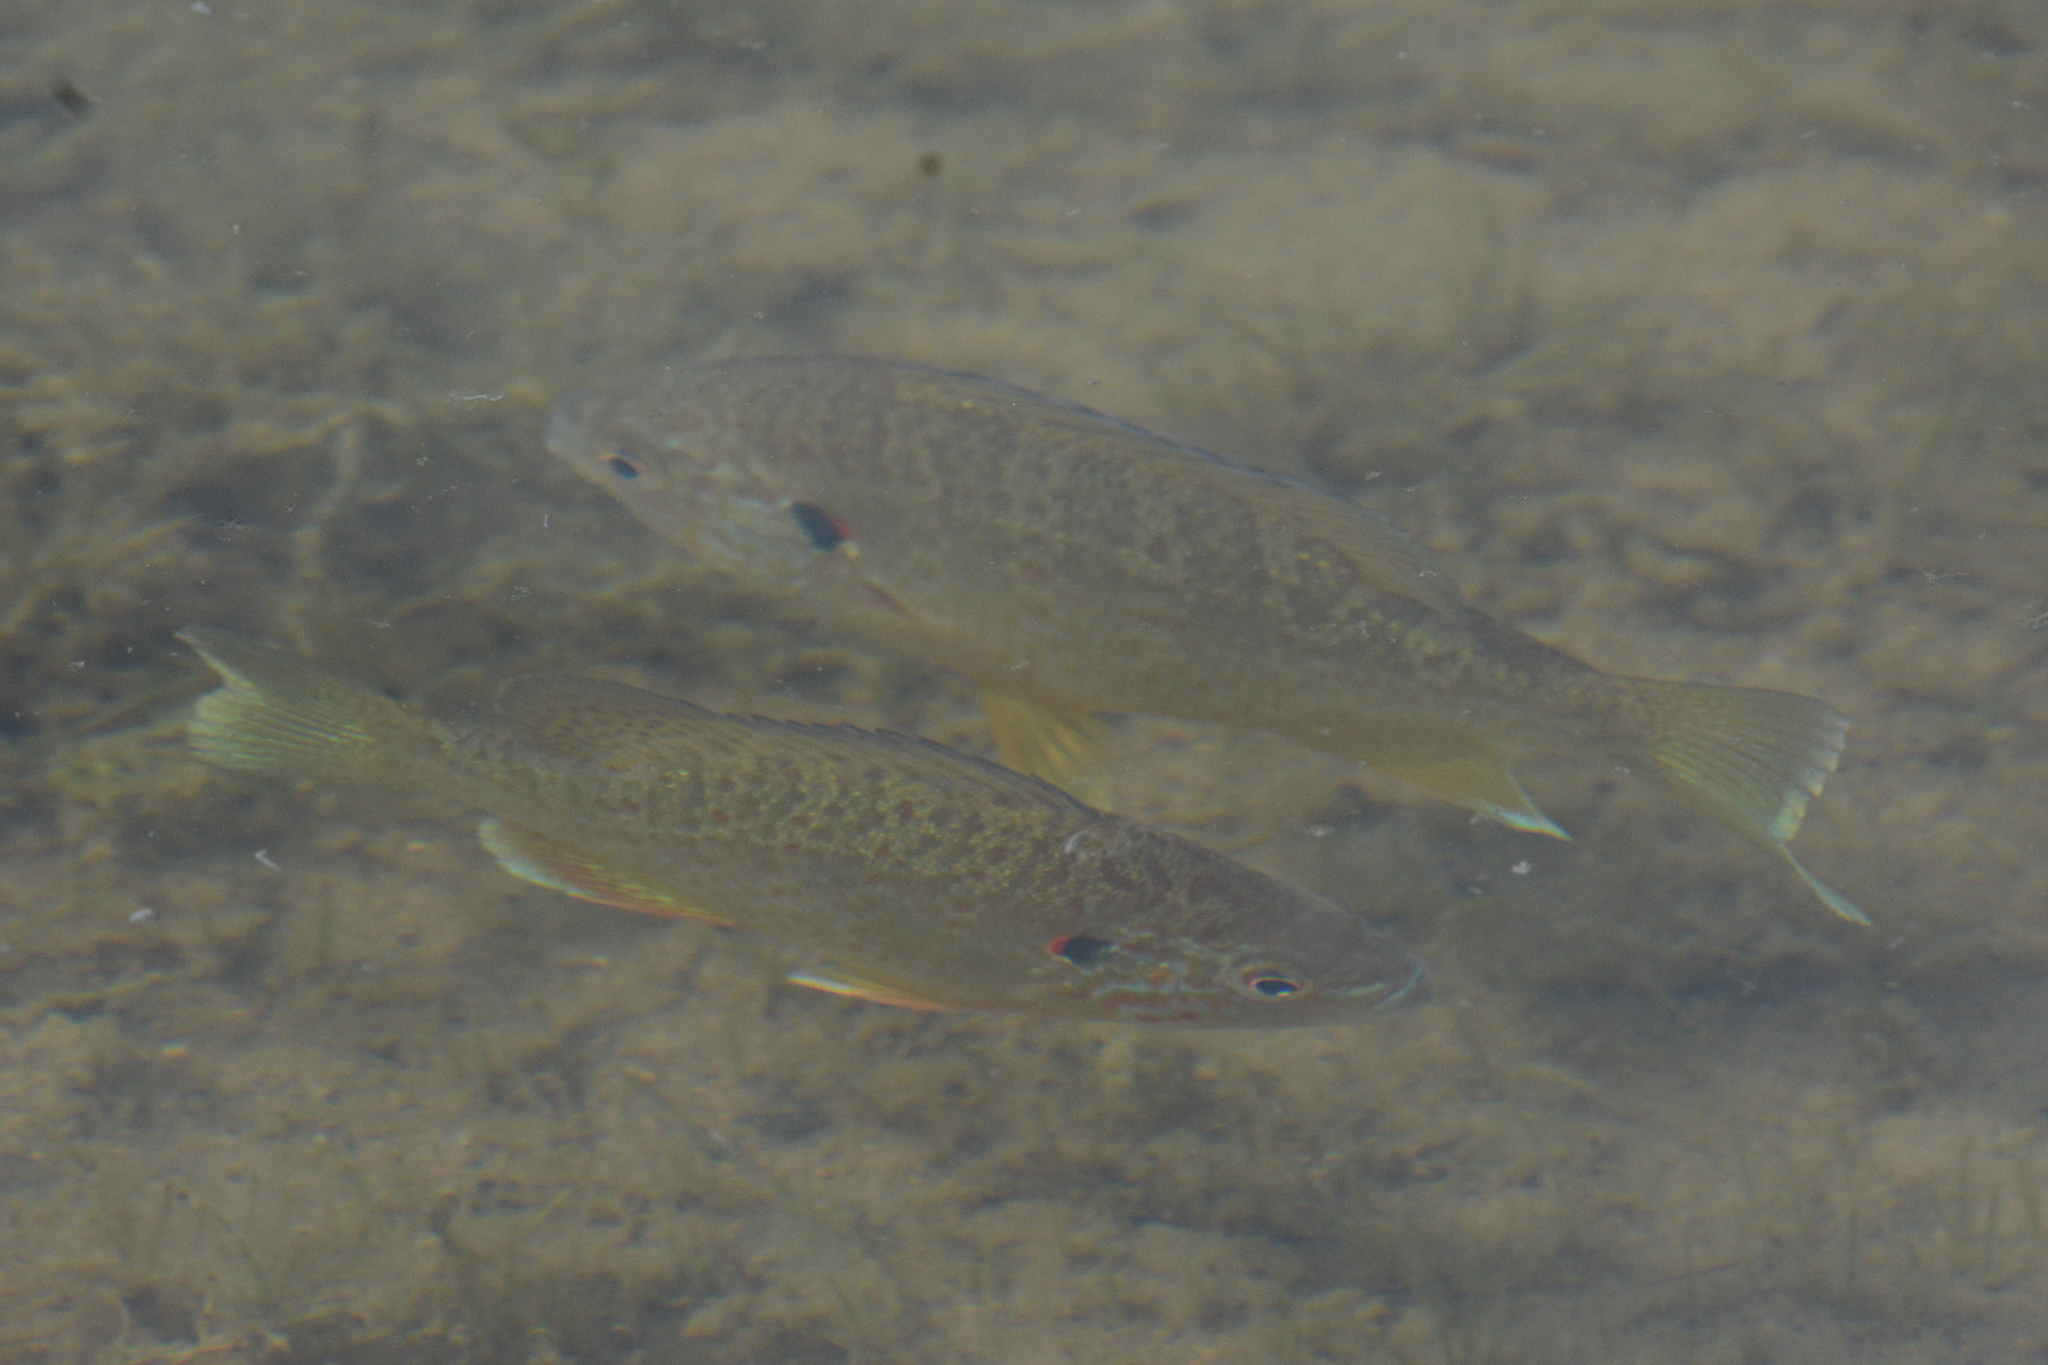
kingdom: Animalia
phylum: Chordata
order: Perciformes
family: Centrarchidae
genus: Lepomis
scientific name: Lepomis gibbosus
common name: Pumpkinseed
